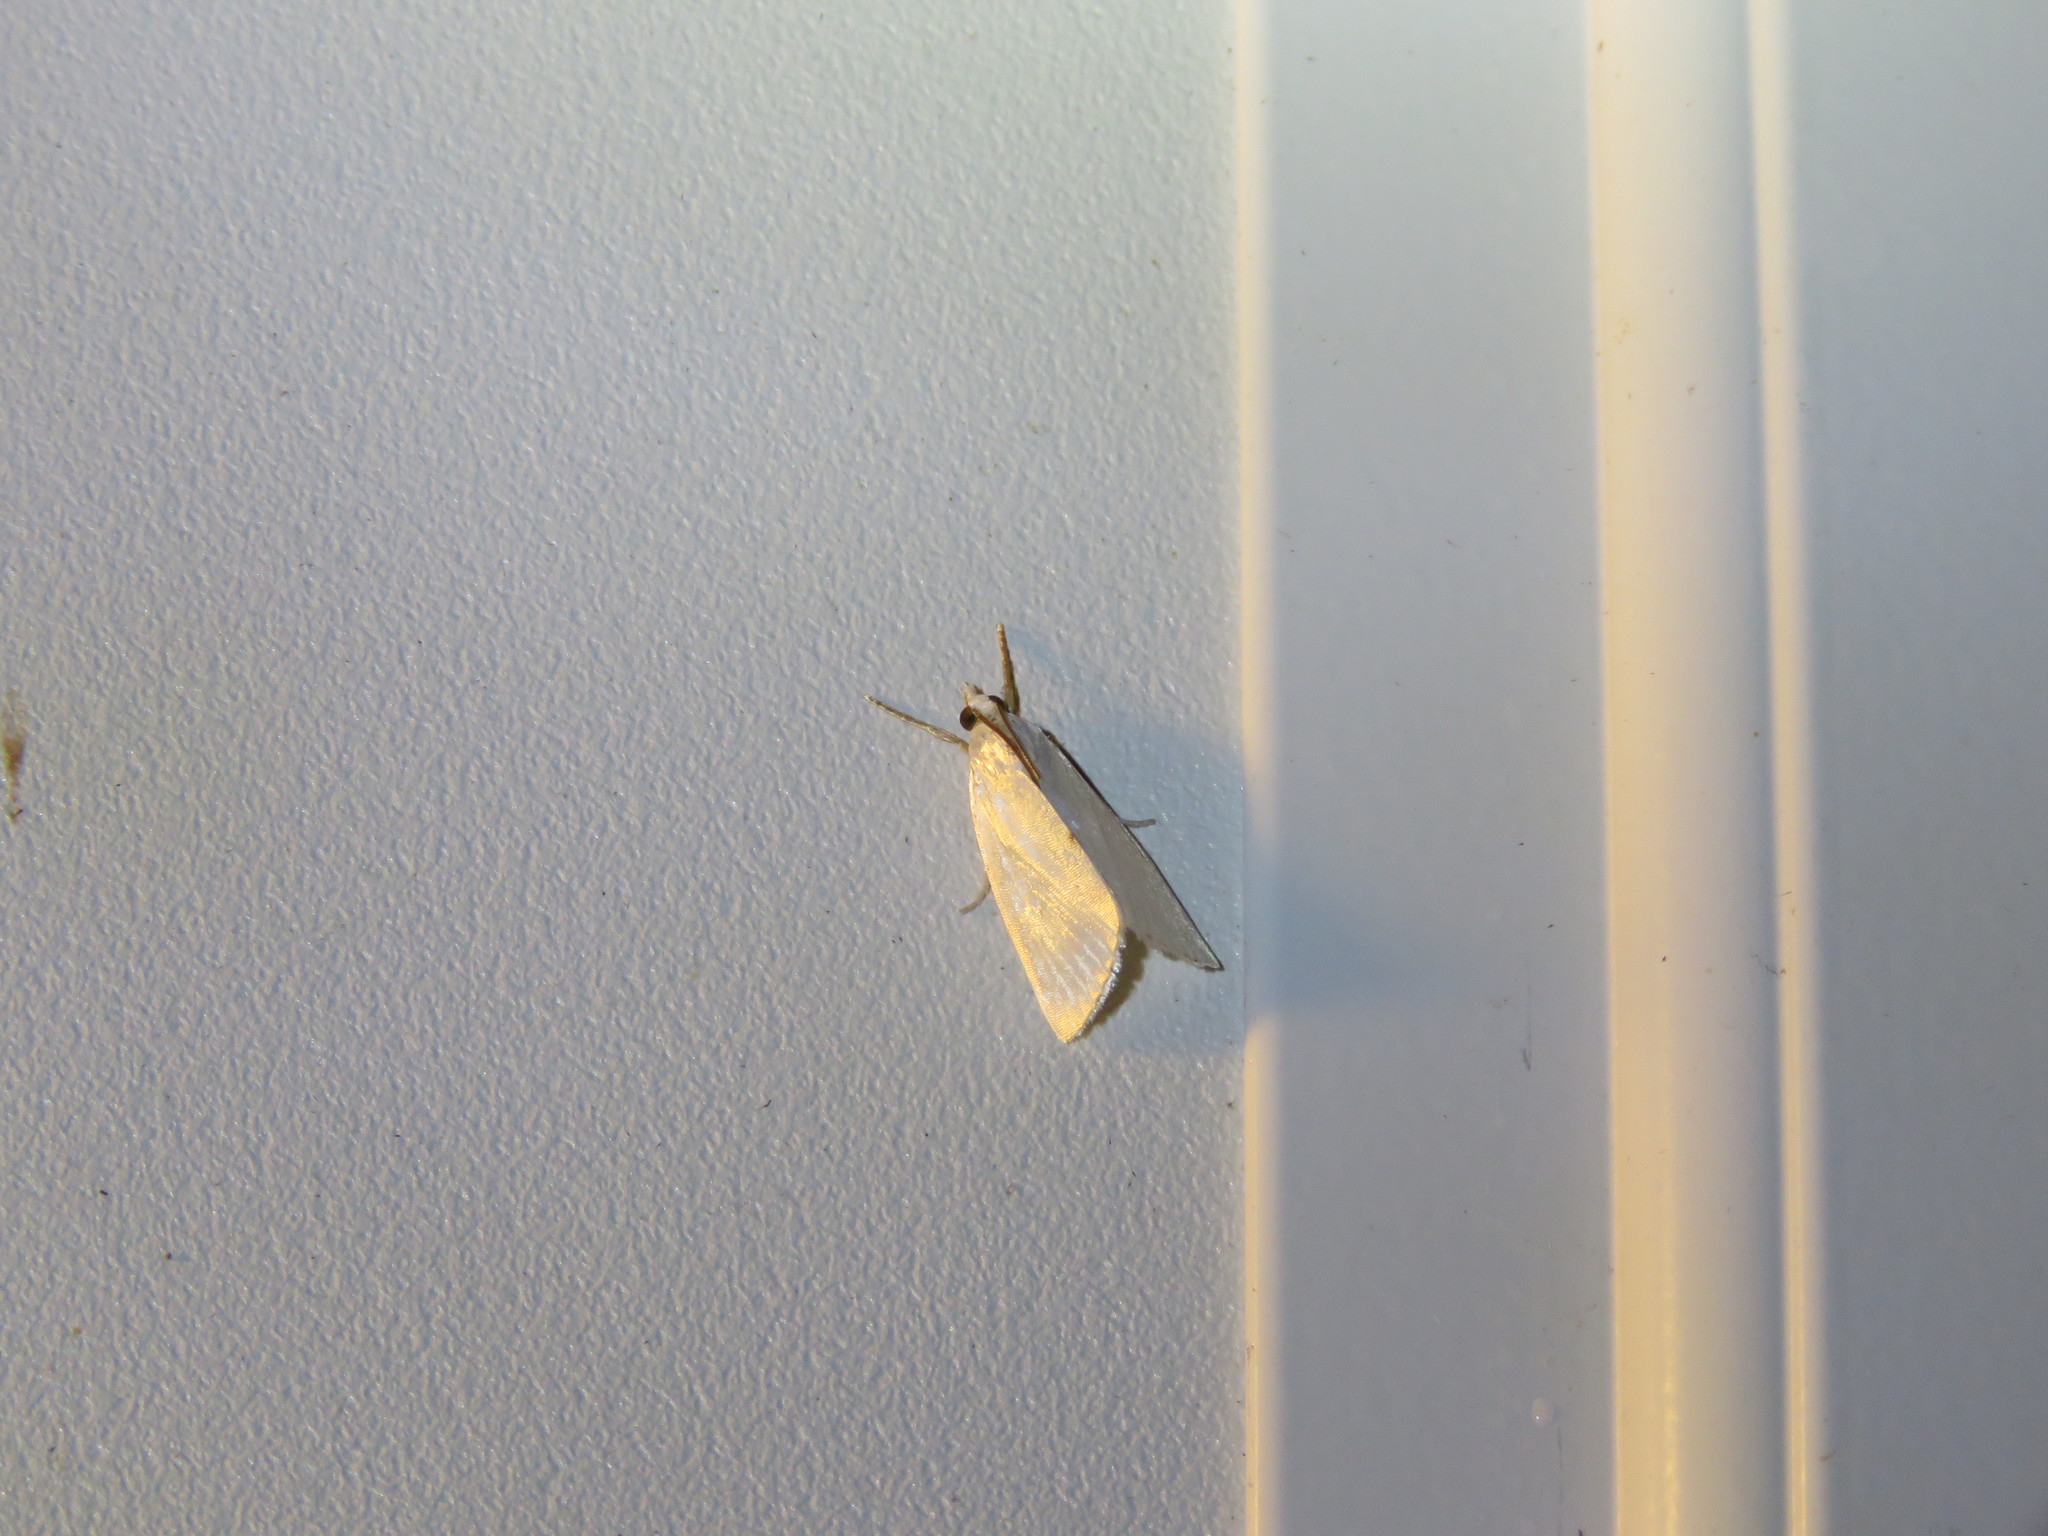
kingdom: Animalia
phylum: Arthropoda
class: Insecta
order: Lepidoptera
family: Crambidae
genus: Argyria
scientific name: Argyria nivalis
